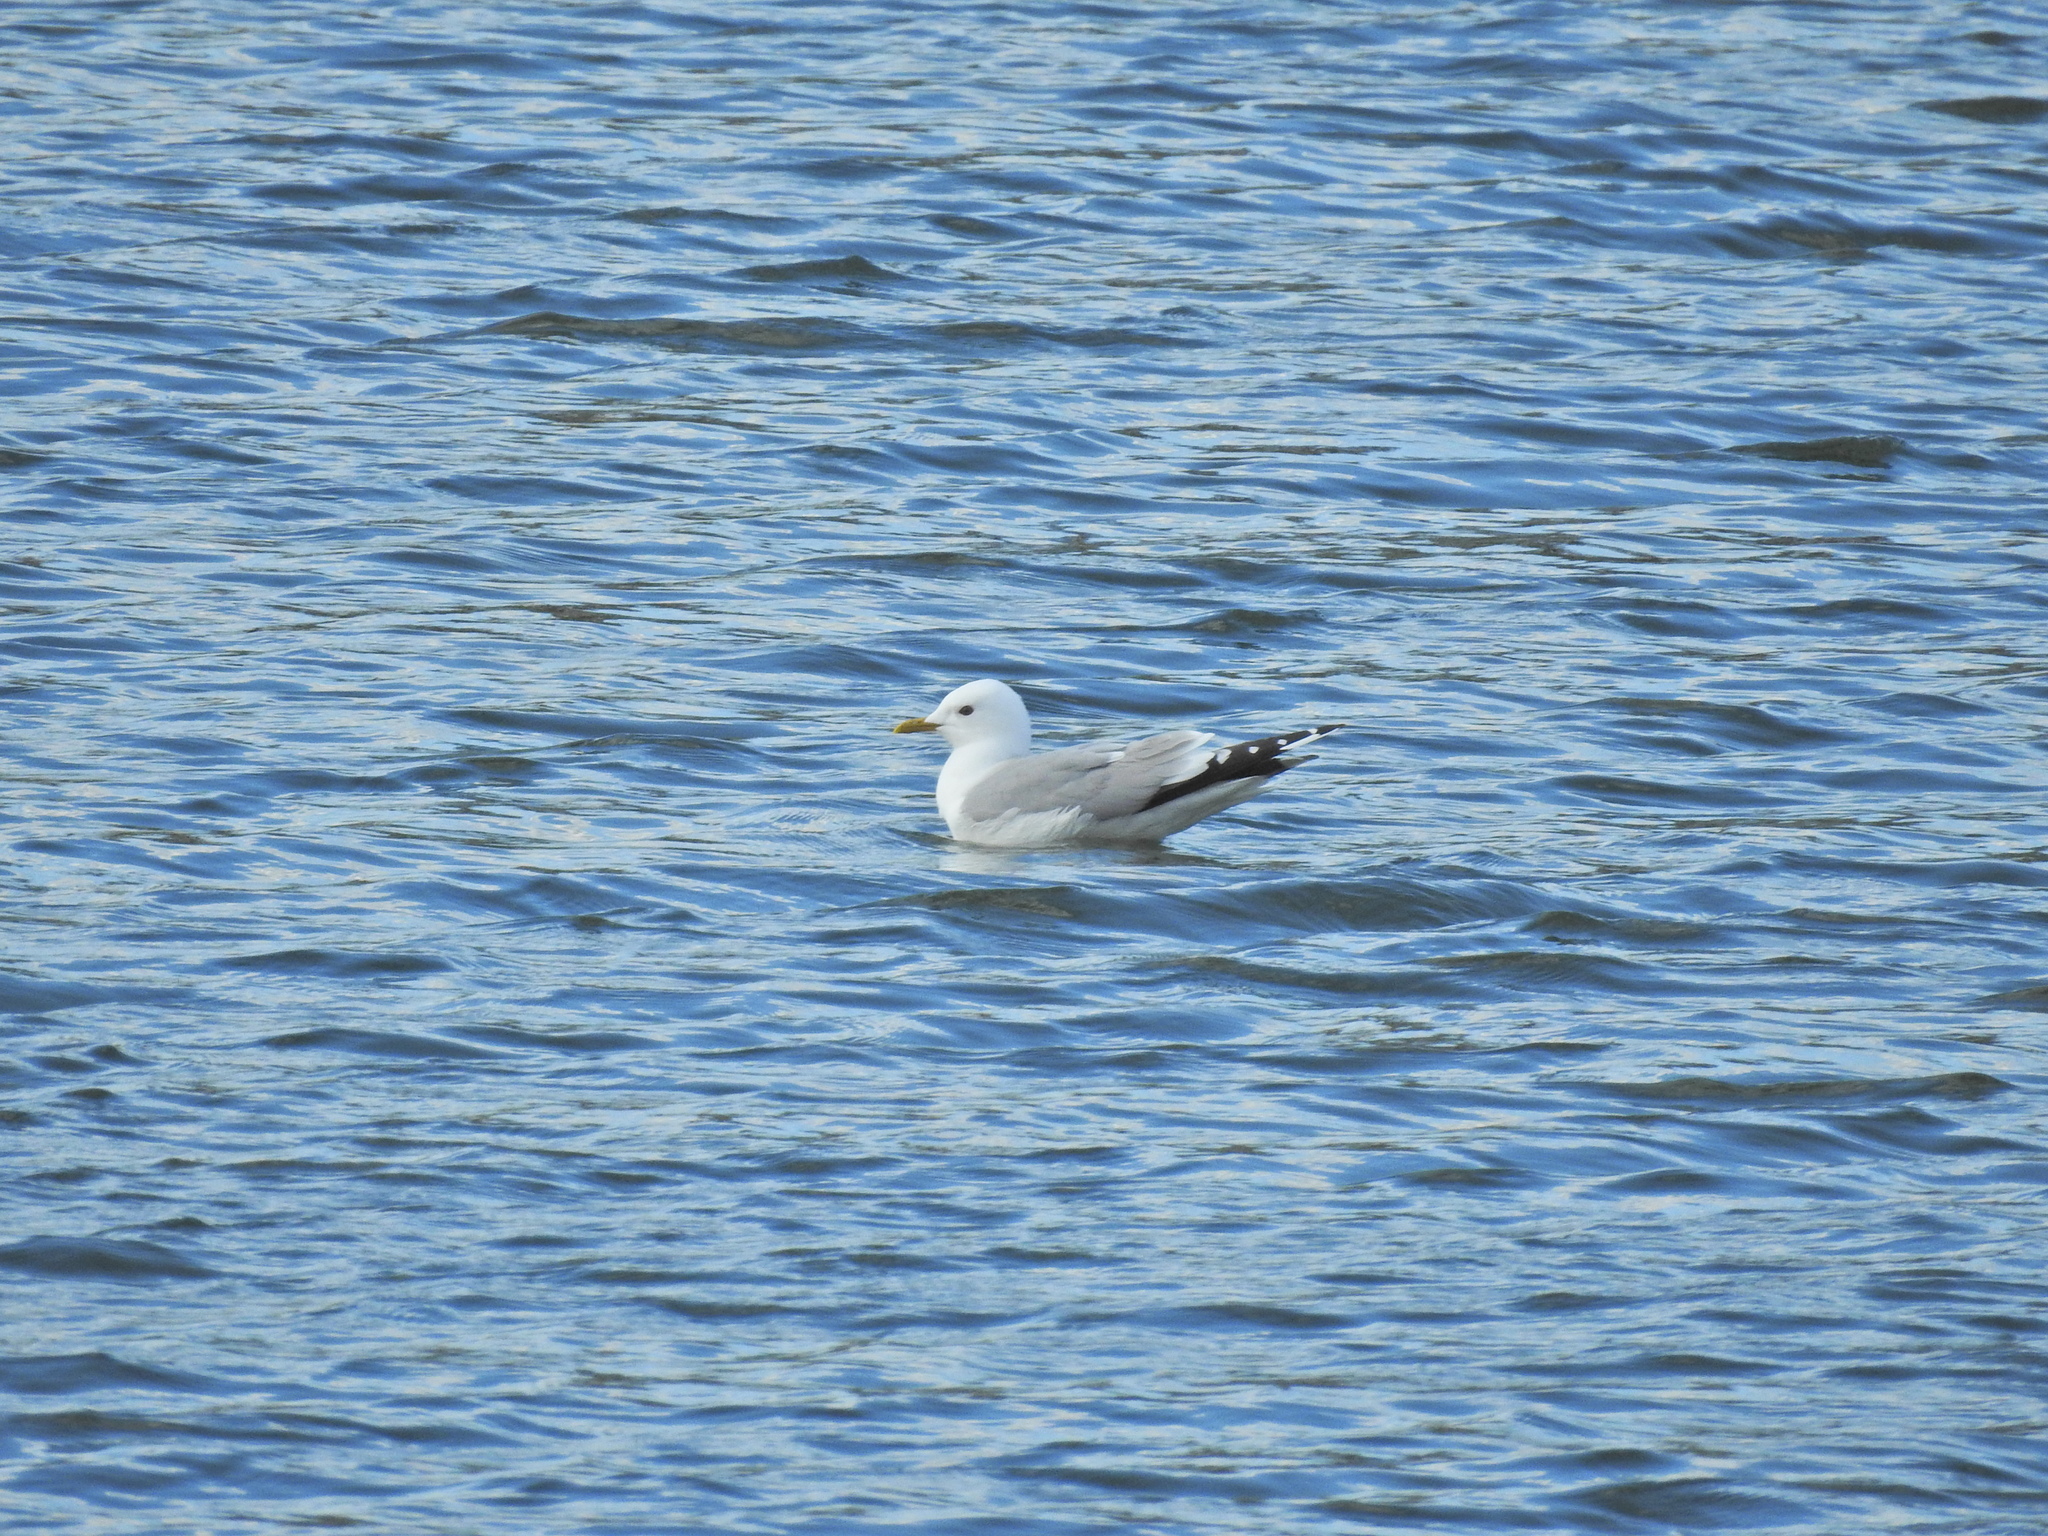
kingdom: Animalia
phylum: Chordata
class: Aves
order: Charadriiformes
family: Laridae
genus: Larus
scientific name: Larus canus
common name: Mew gull
